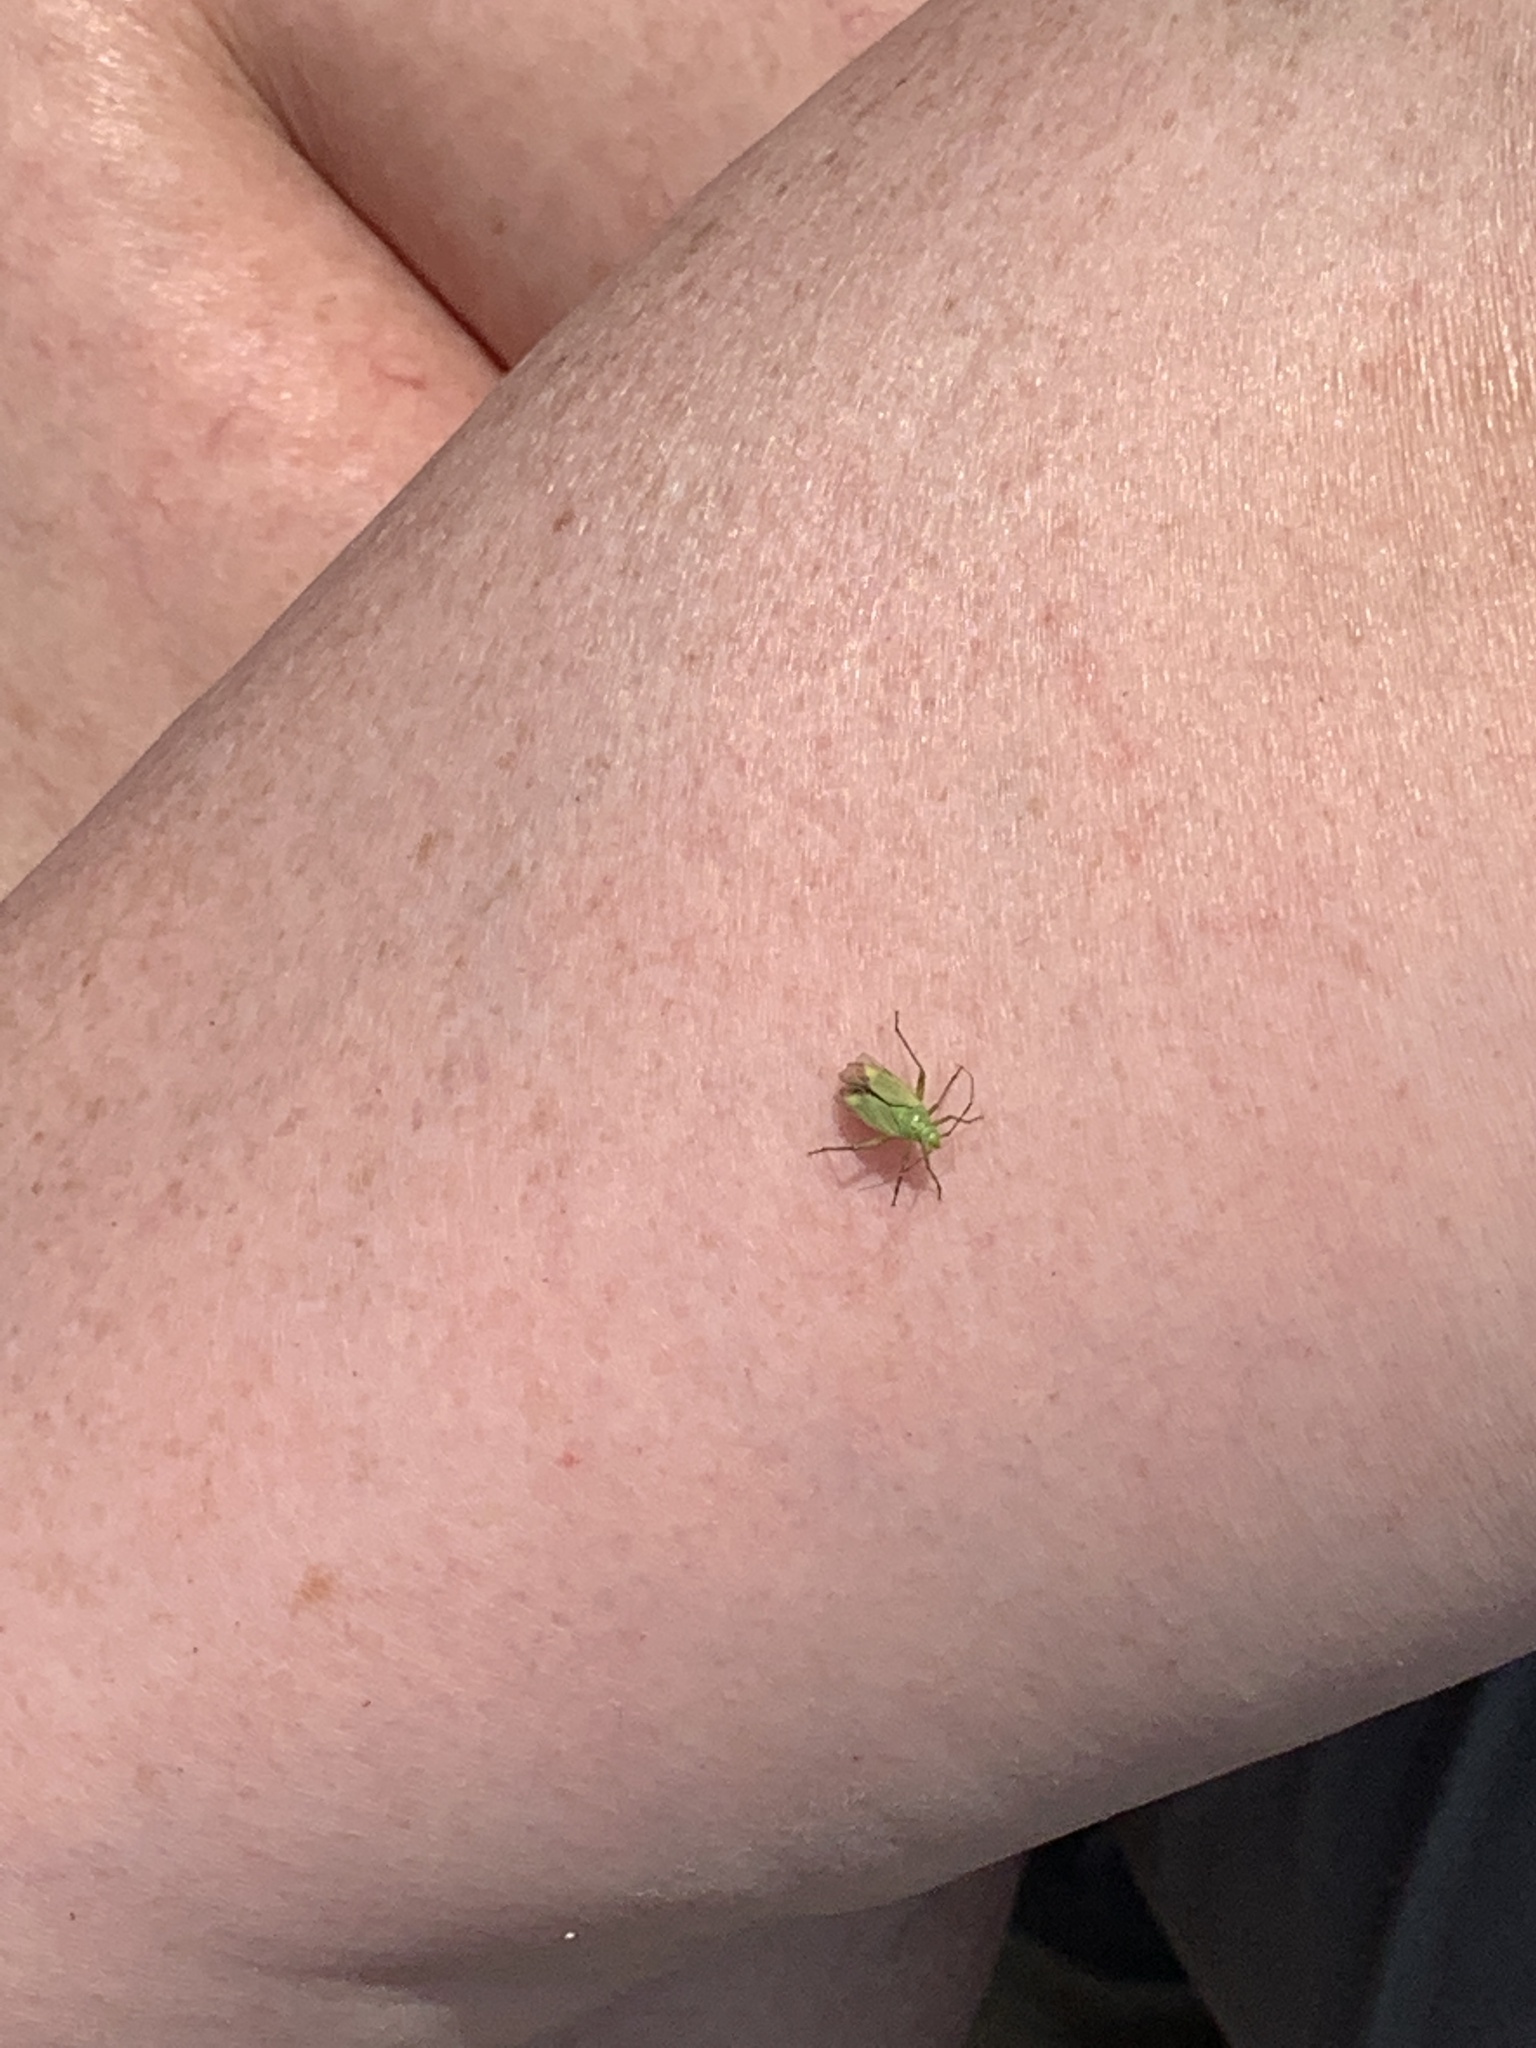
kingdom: Animalia
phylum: Arthropoda
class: Insecta
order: Hemiptera
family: Miridae
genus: Closterotomus
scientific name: Closterotomus norvegicus
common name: Plant bug
